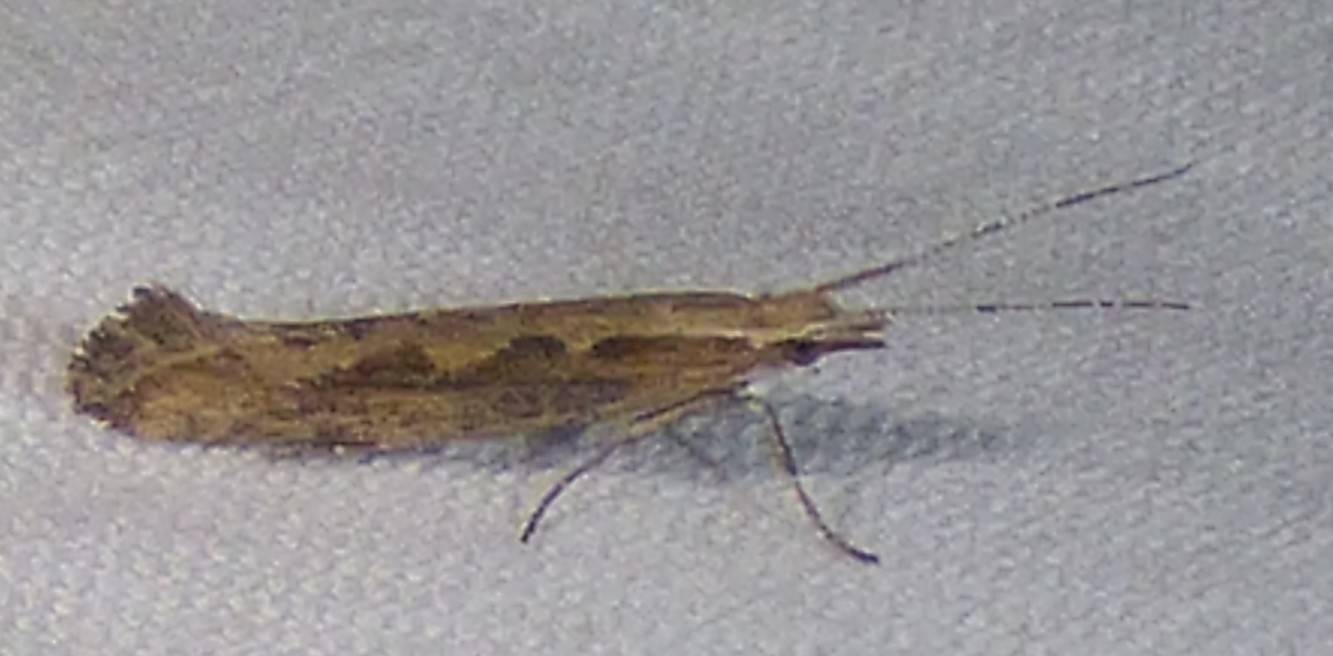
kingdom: Animalia
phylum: Arthropoda
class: Insecta
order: Lepidoptera
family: Plutellidae
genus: Plutella
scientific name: Plutella xylostella
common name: Diamond-back moth
